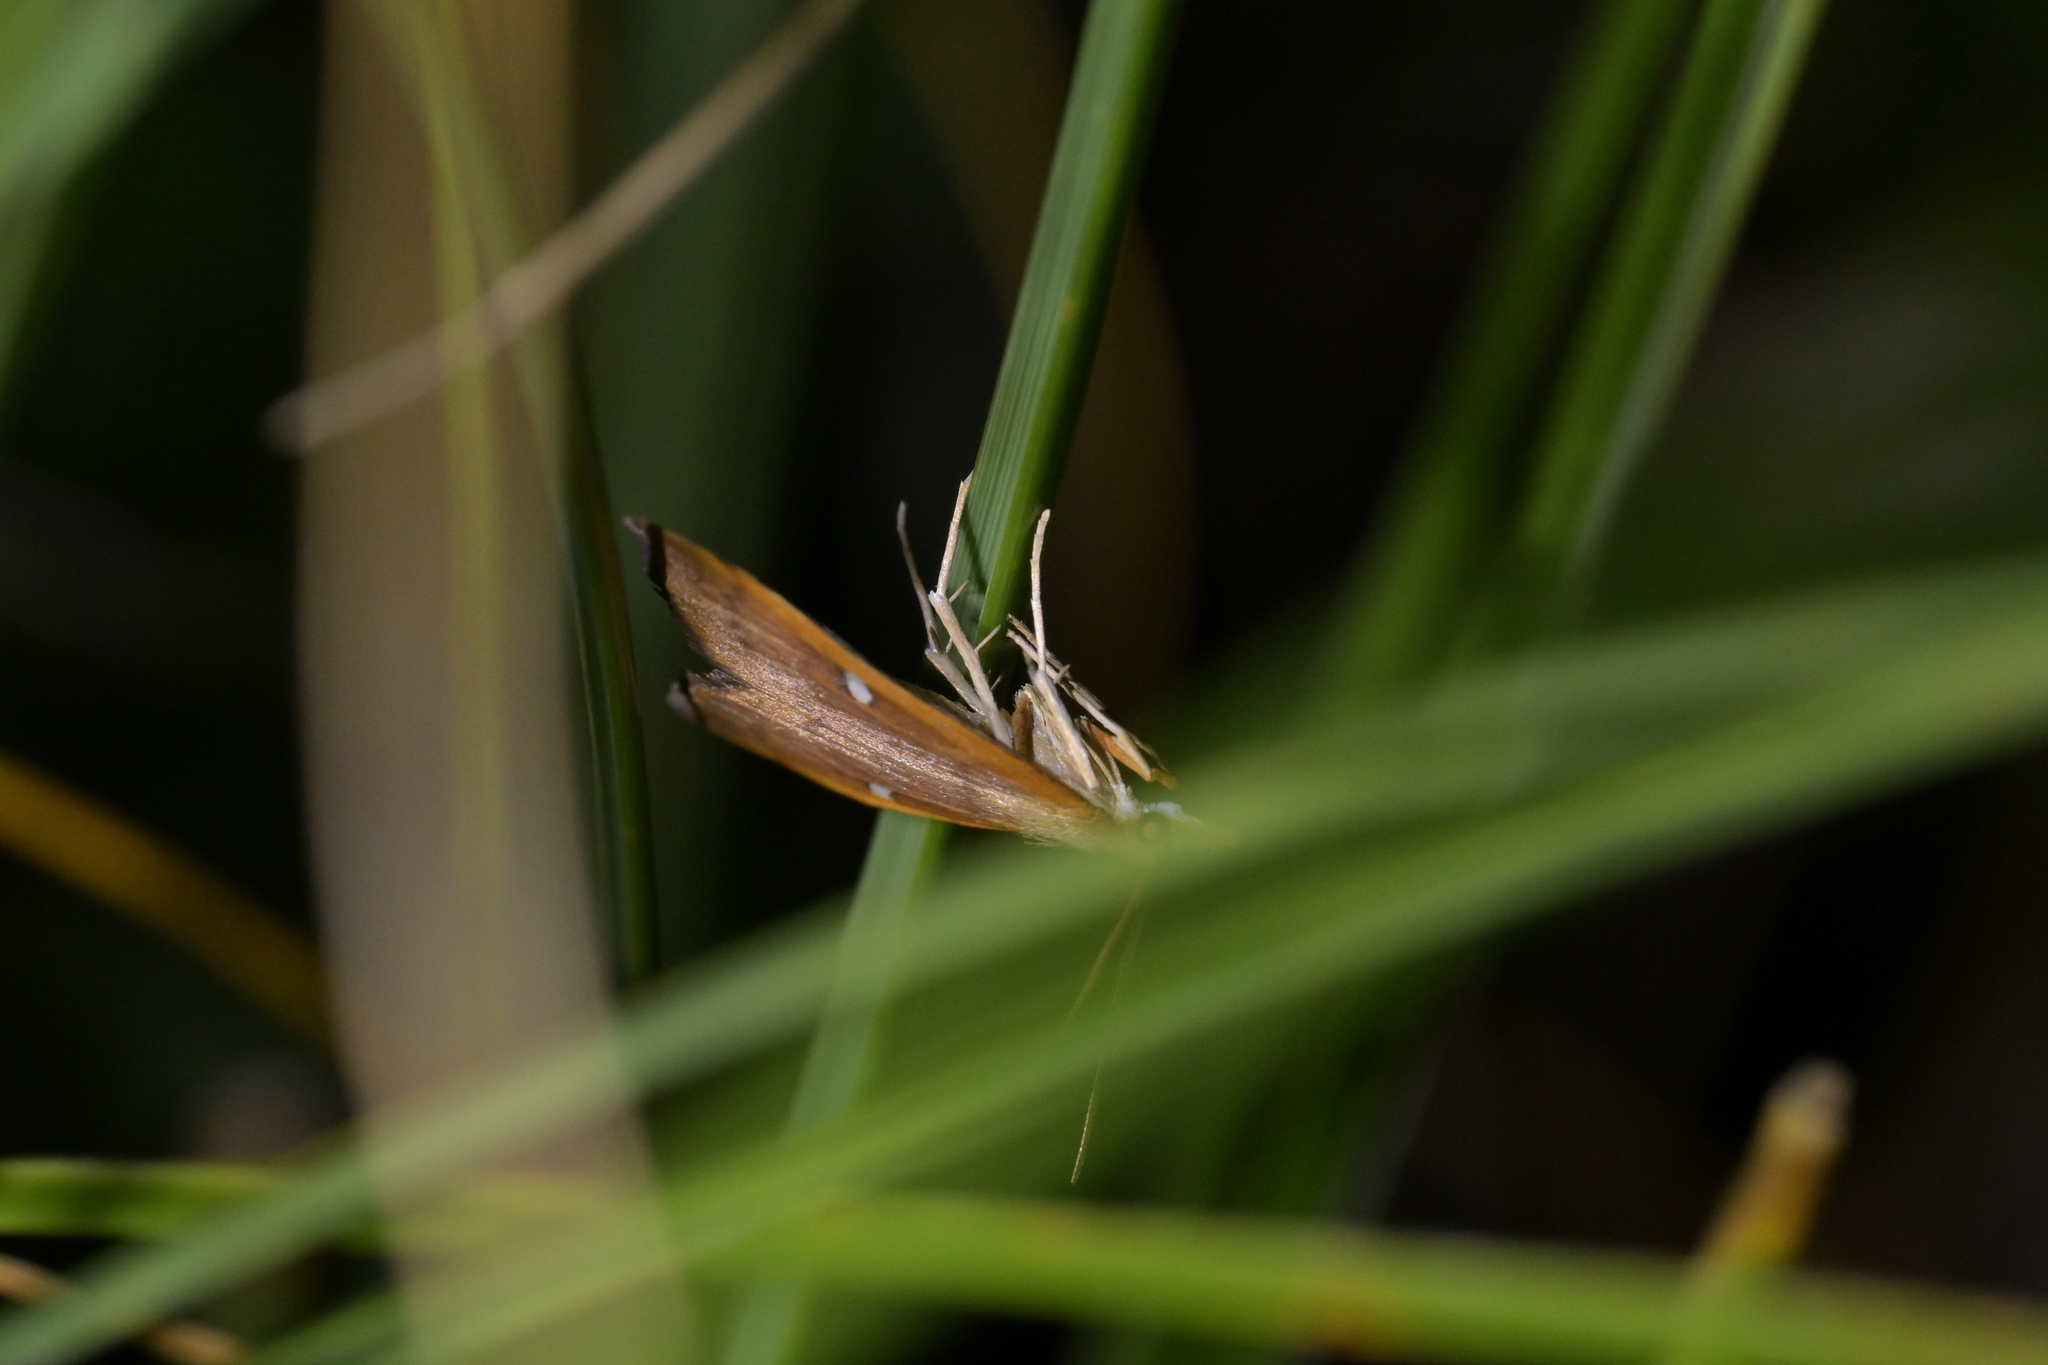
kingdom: Animalia
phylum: Arthropoda
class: Insecta
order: Lepidoptera
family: Crambidae
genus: Udea
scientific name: Udea notata
